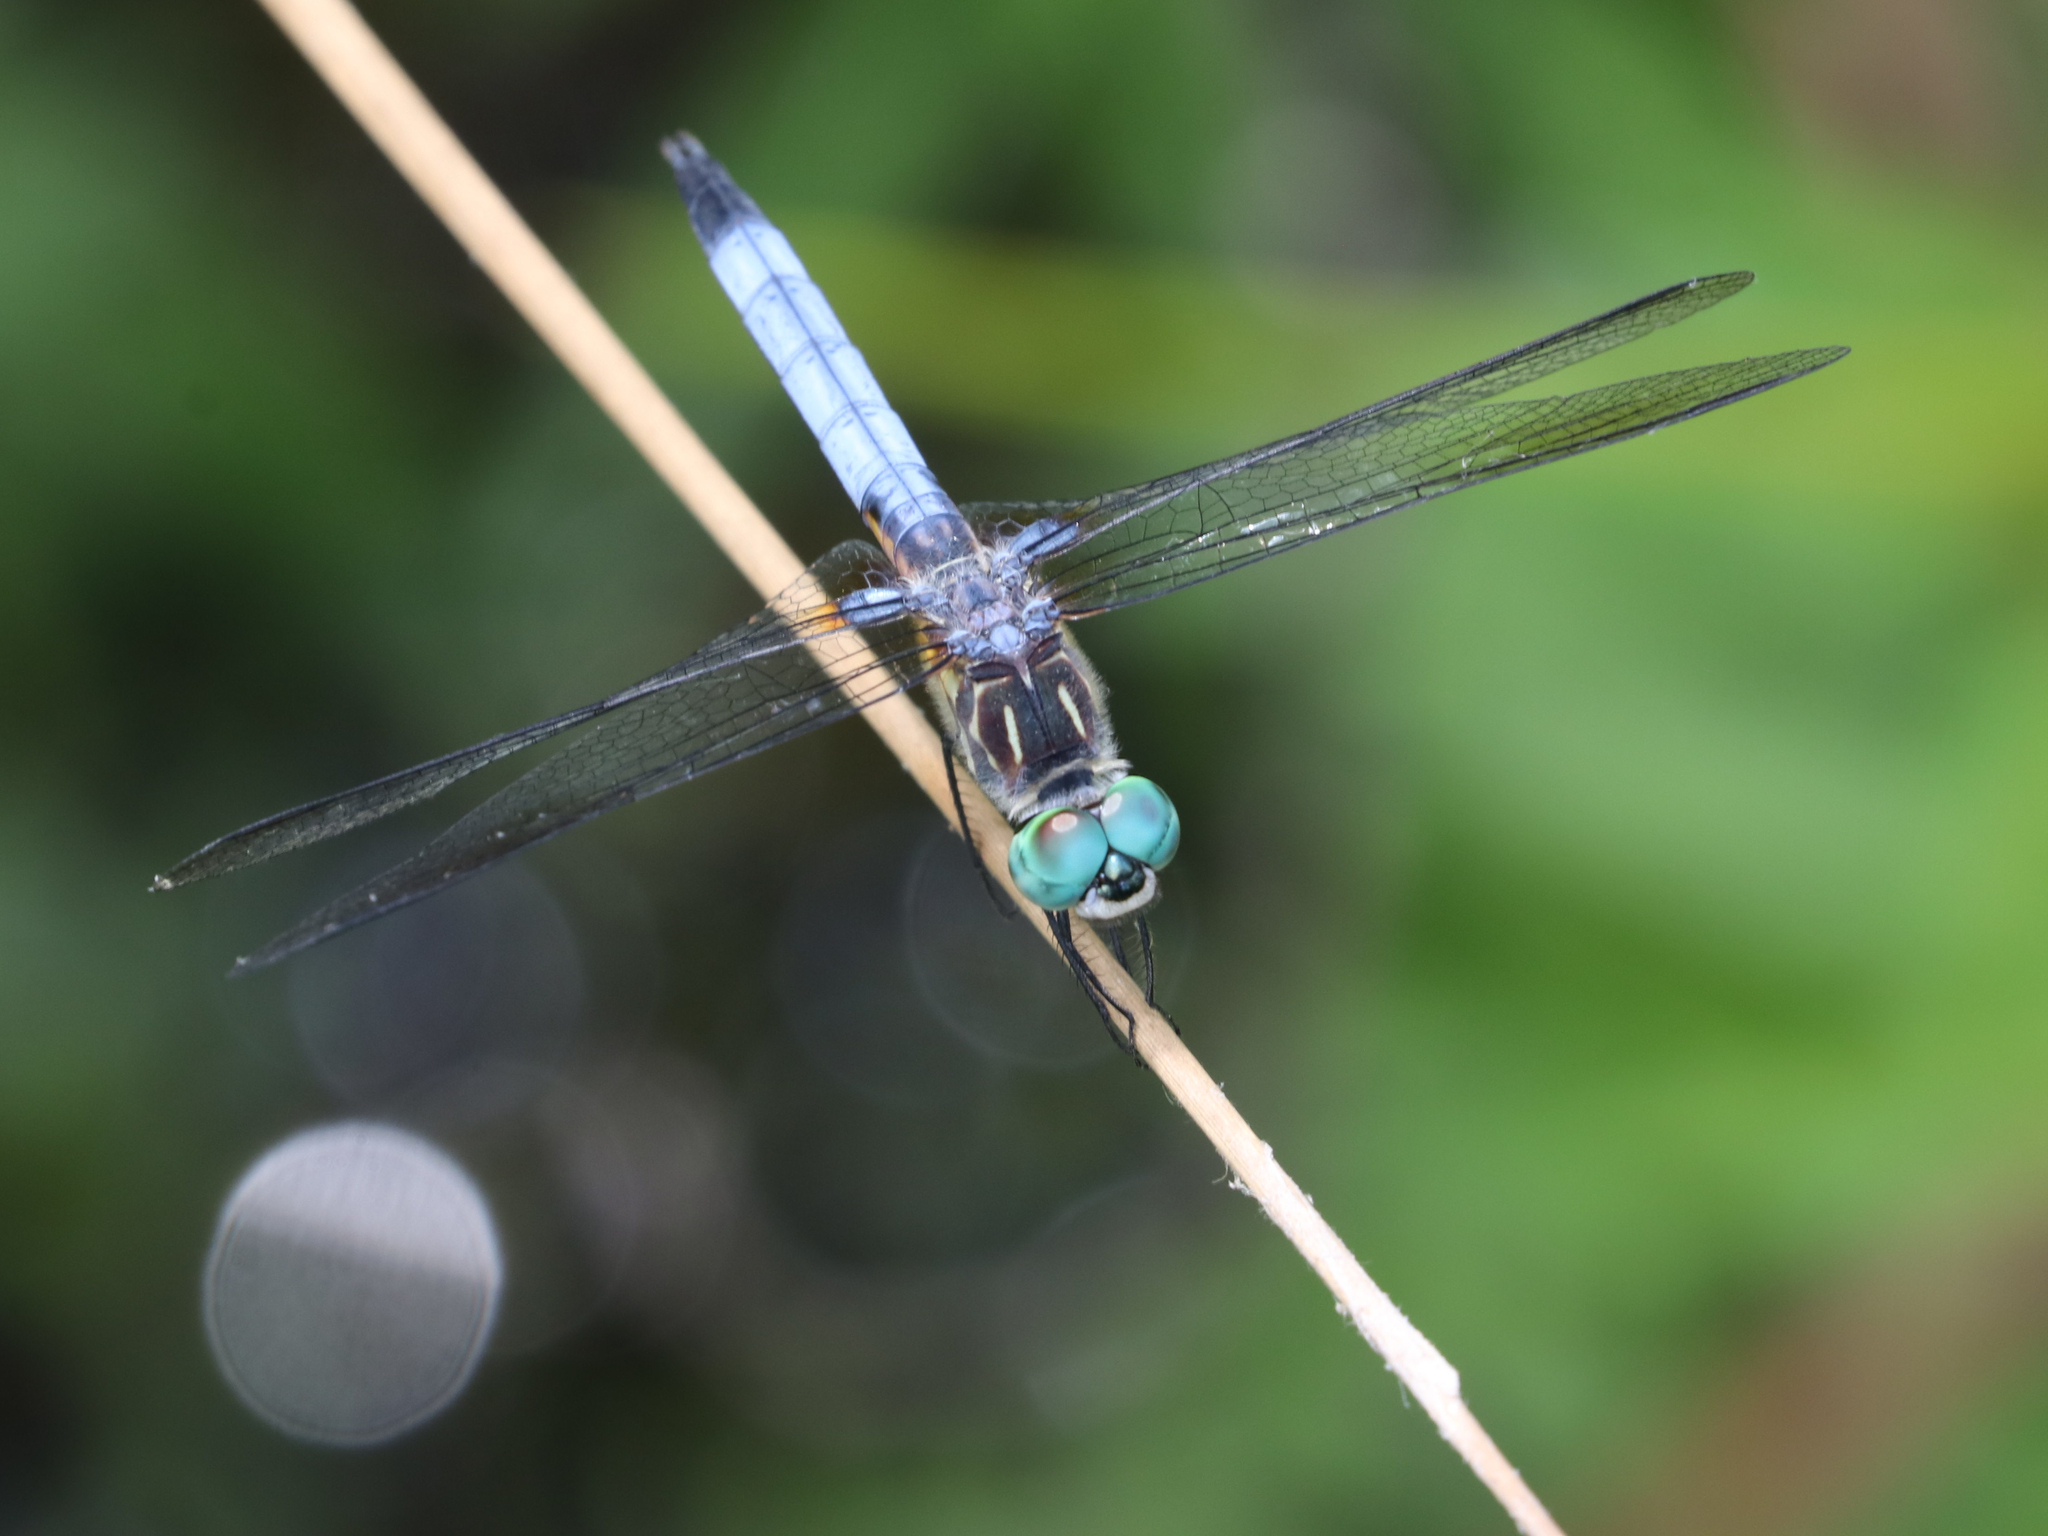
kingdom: Animalia
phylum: Arthropoda
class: Insecta
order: Odonata
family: Libellulidae
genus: Pachydiplax
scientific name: Pachydiplax longipennis
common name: Blue dasher
